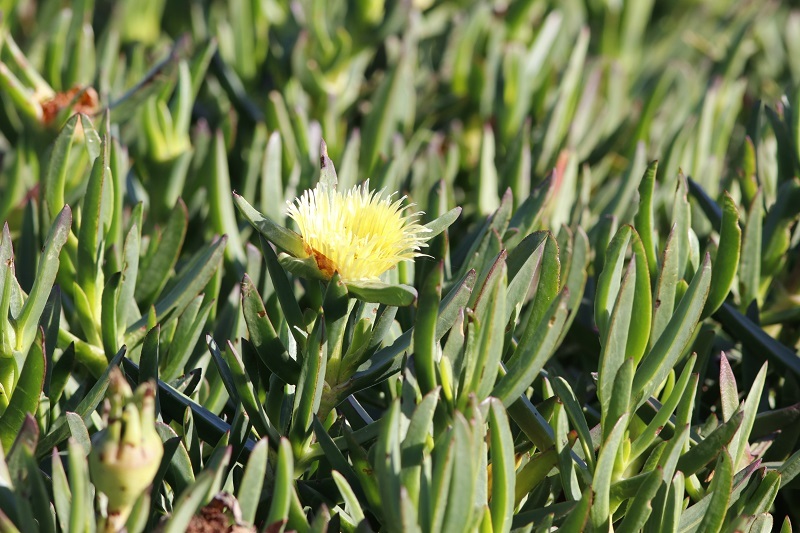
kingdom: Plantae
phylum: Tracheophyta
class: Magnoliopsida
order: Caryophyllales
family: Aizoaceae
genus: Carpobrotus
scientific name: Carpobrotus edulis
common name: Hottentot-fig
